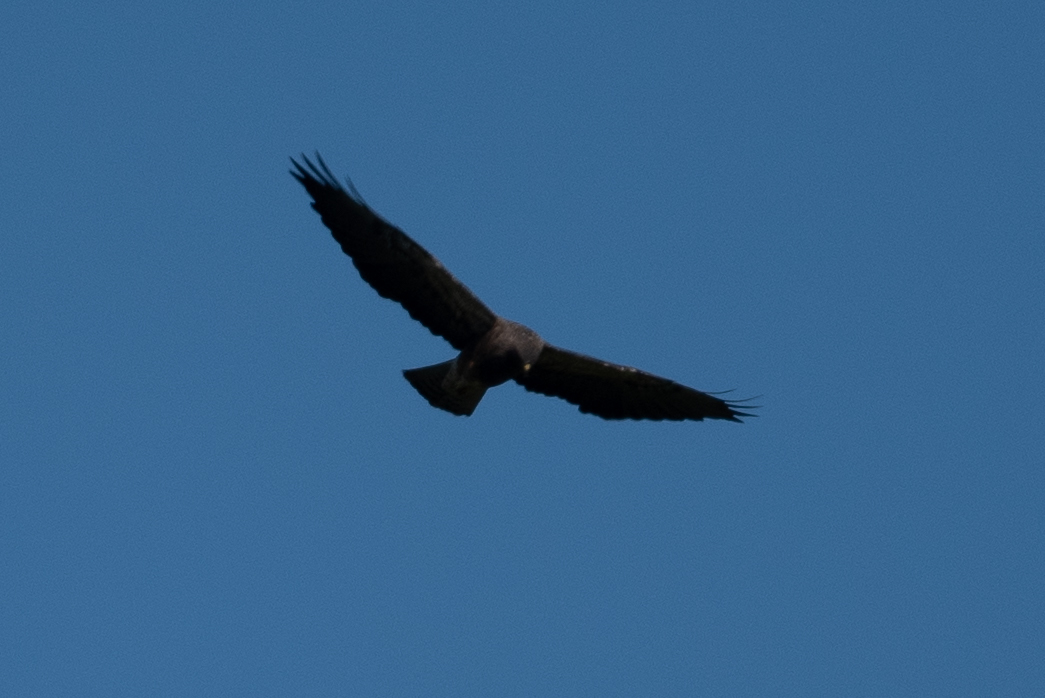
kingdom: Animalia
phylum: Chordata
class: Aves
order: Accipitriformes
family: Accipitridae
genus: Buteo
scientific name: Buteo swainsoni
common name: Swainson's hawk
